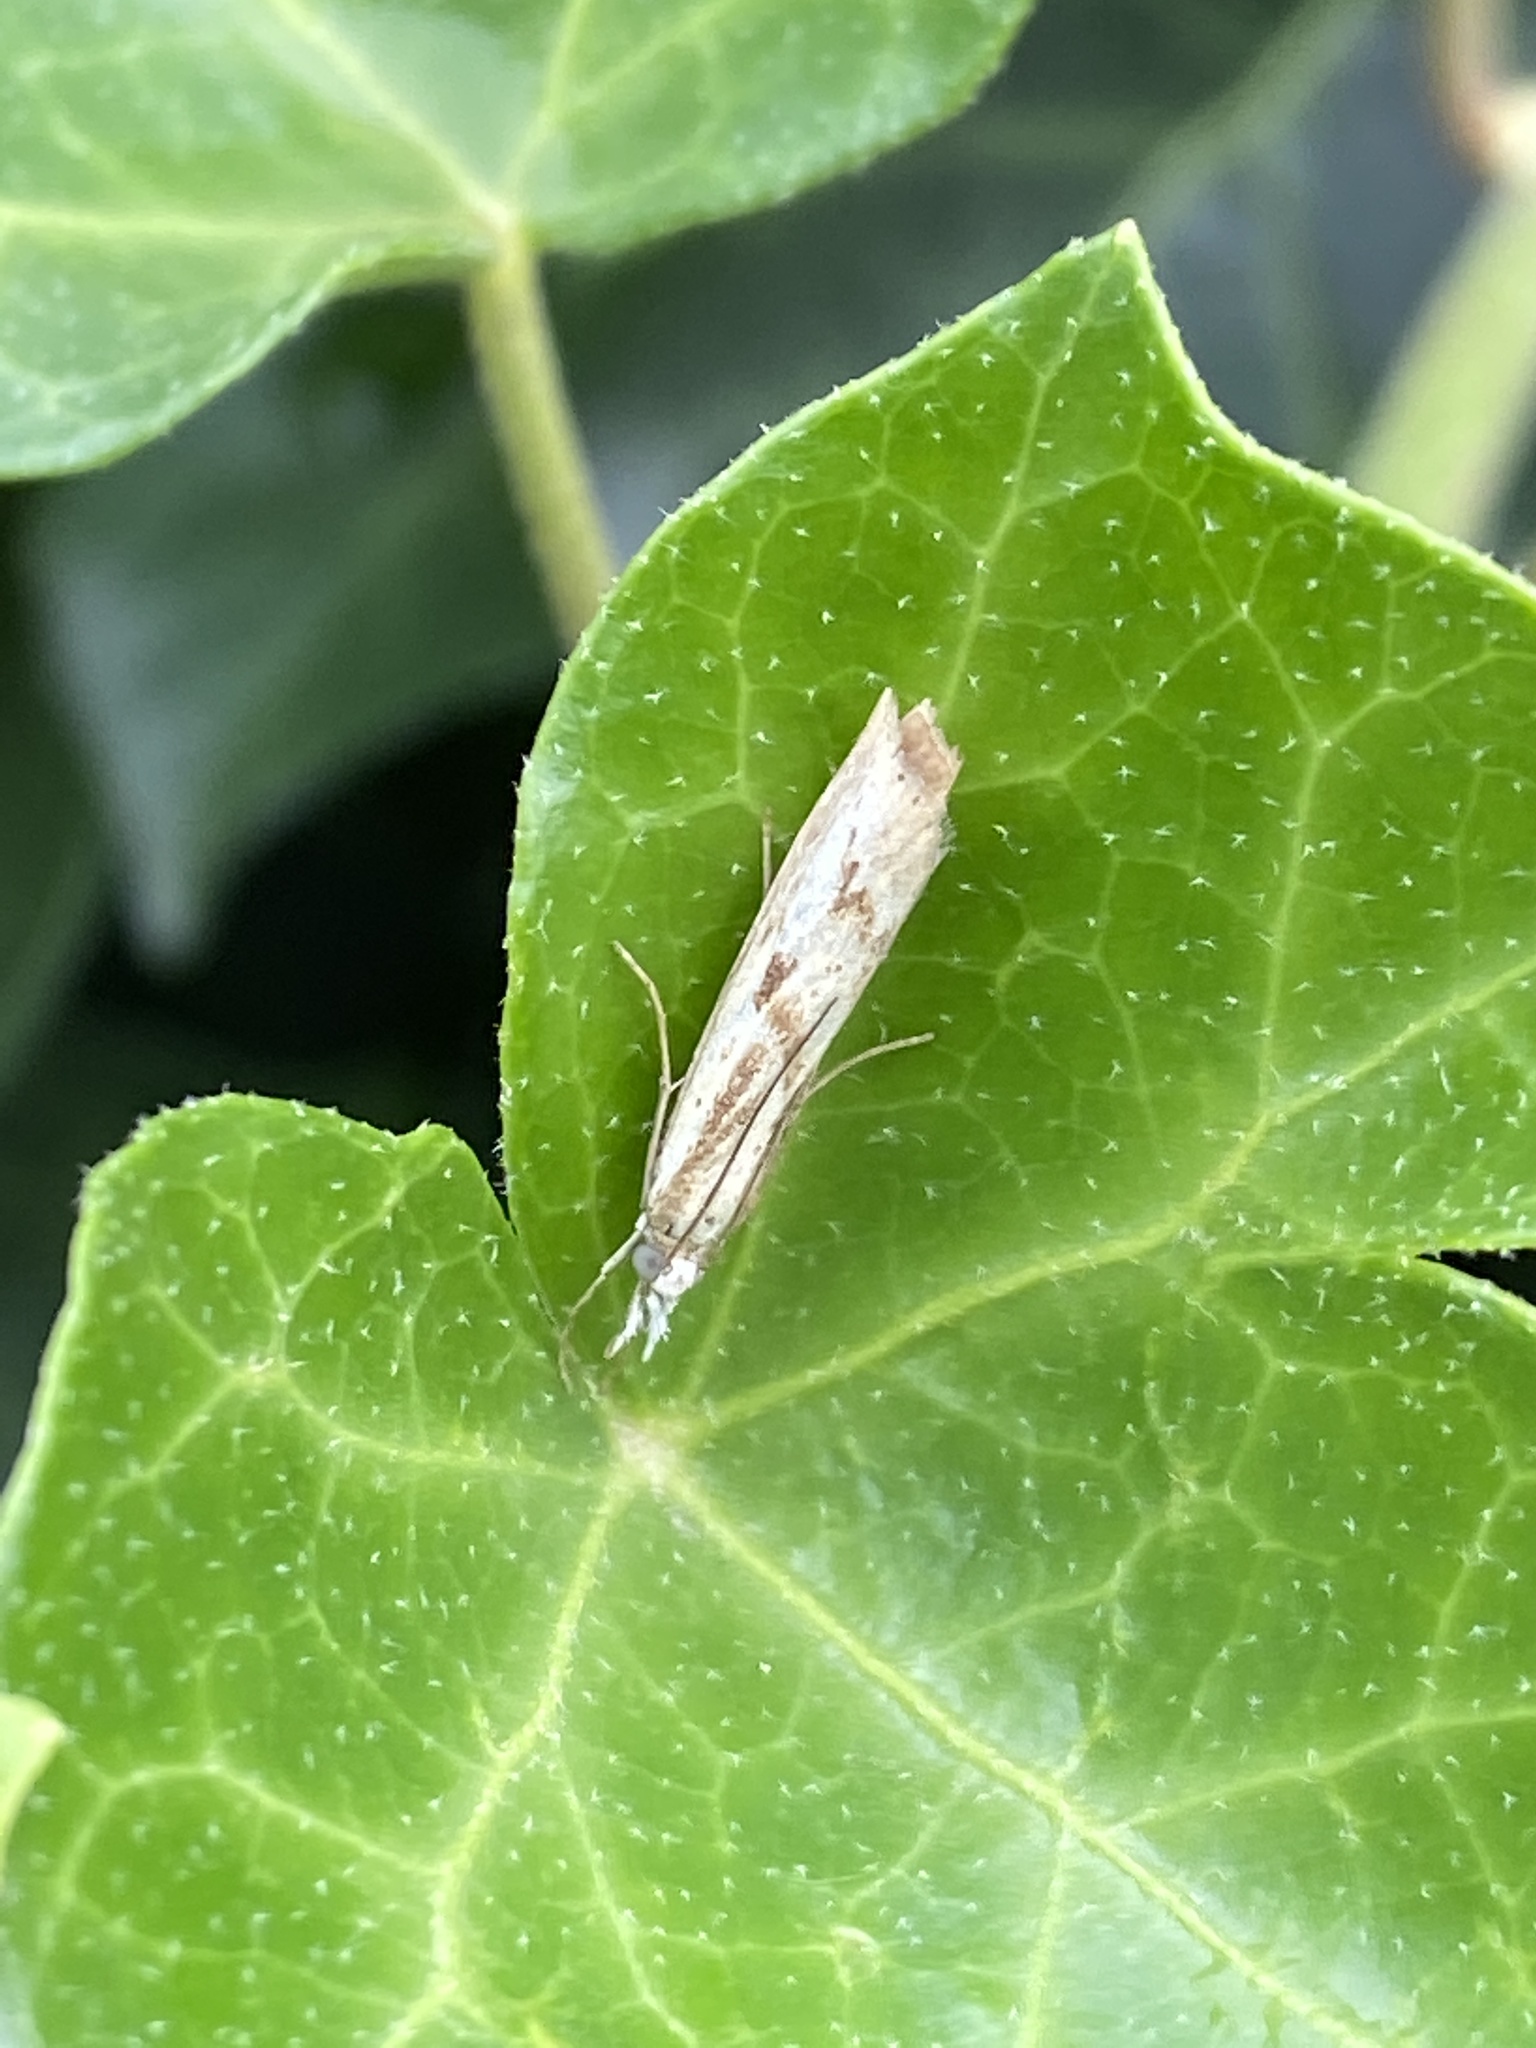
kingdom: Animalia
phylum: Arthropoda
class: Insecta
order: Lepidoptera
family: Crambidae
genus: Agriphila
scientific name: Agriphila inquinatella
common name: Barred grass-veneer
